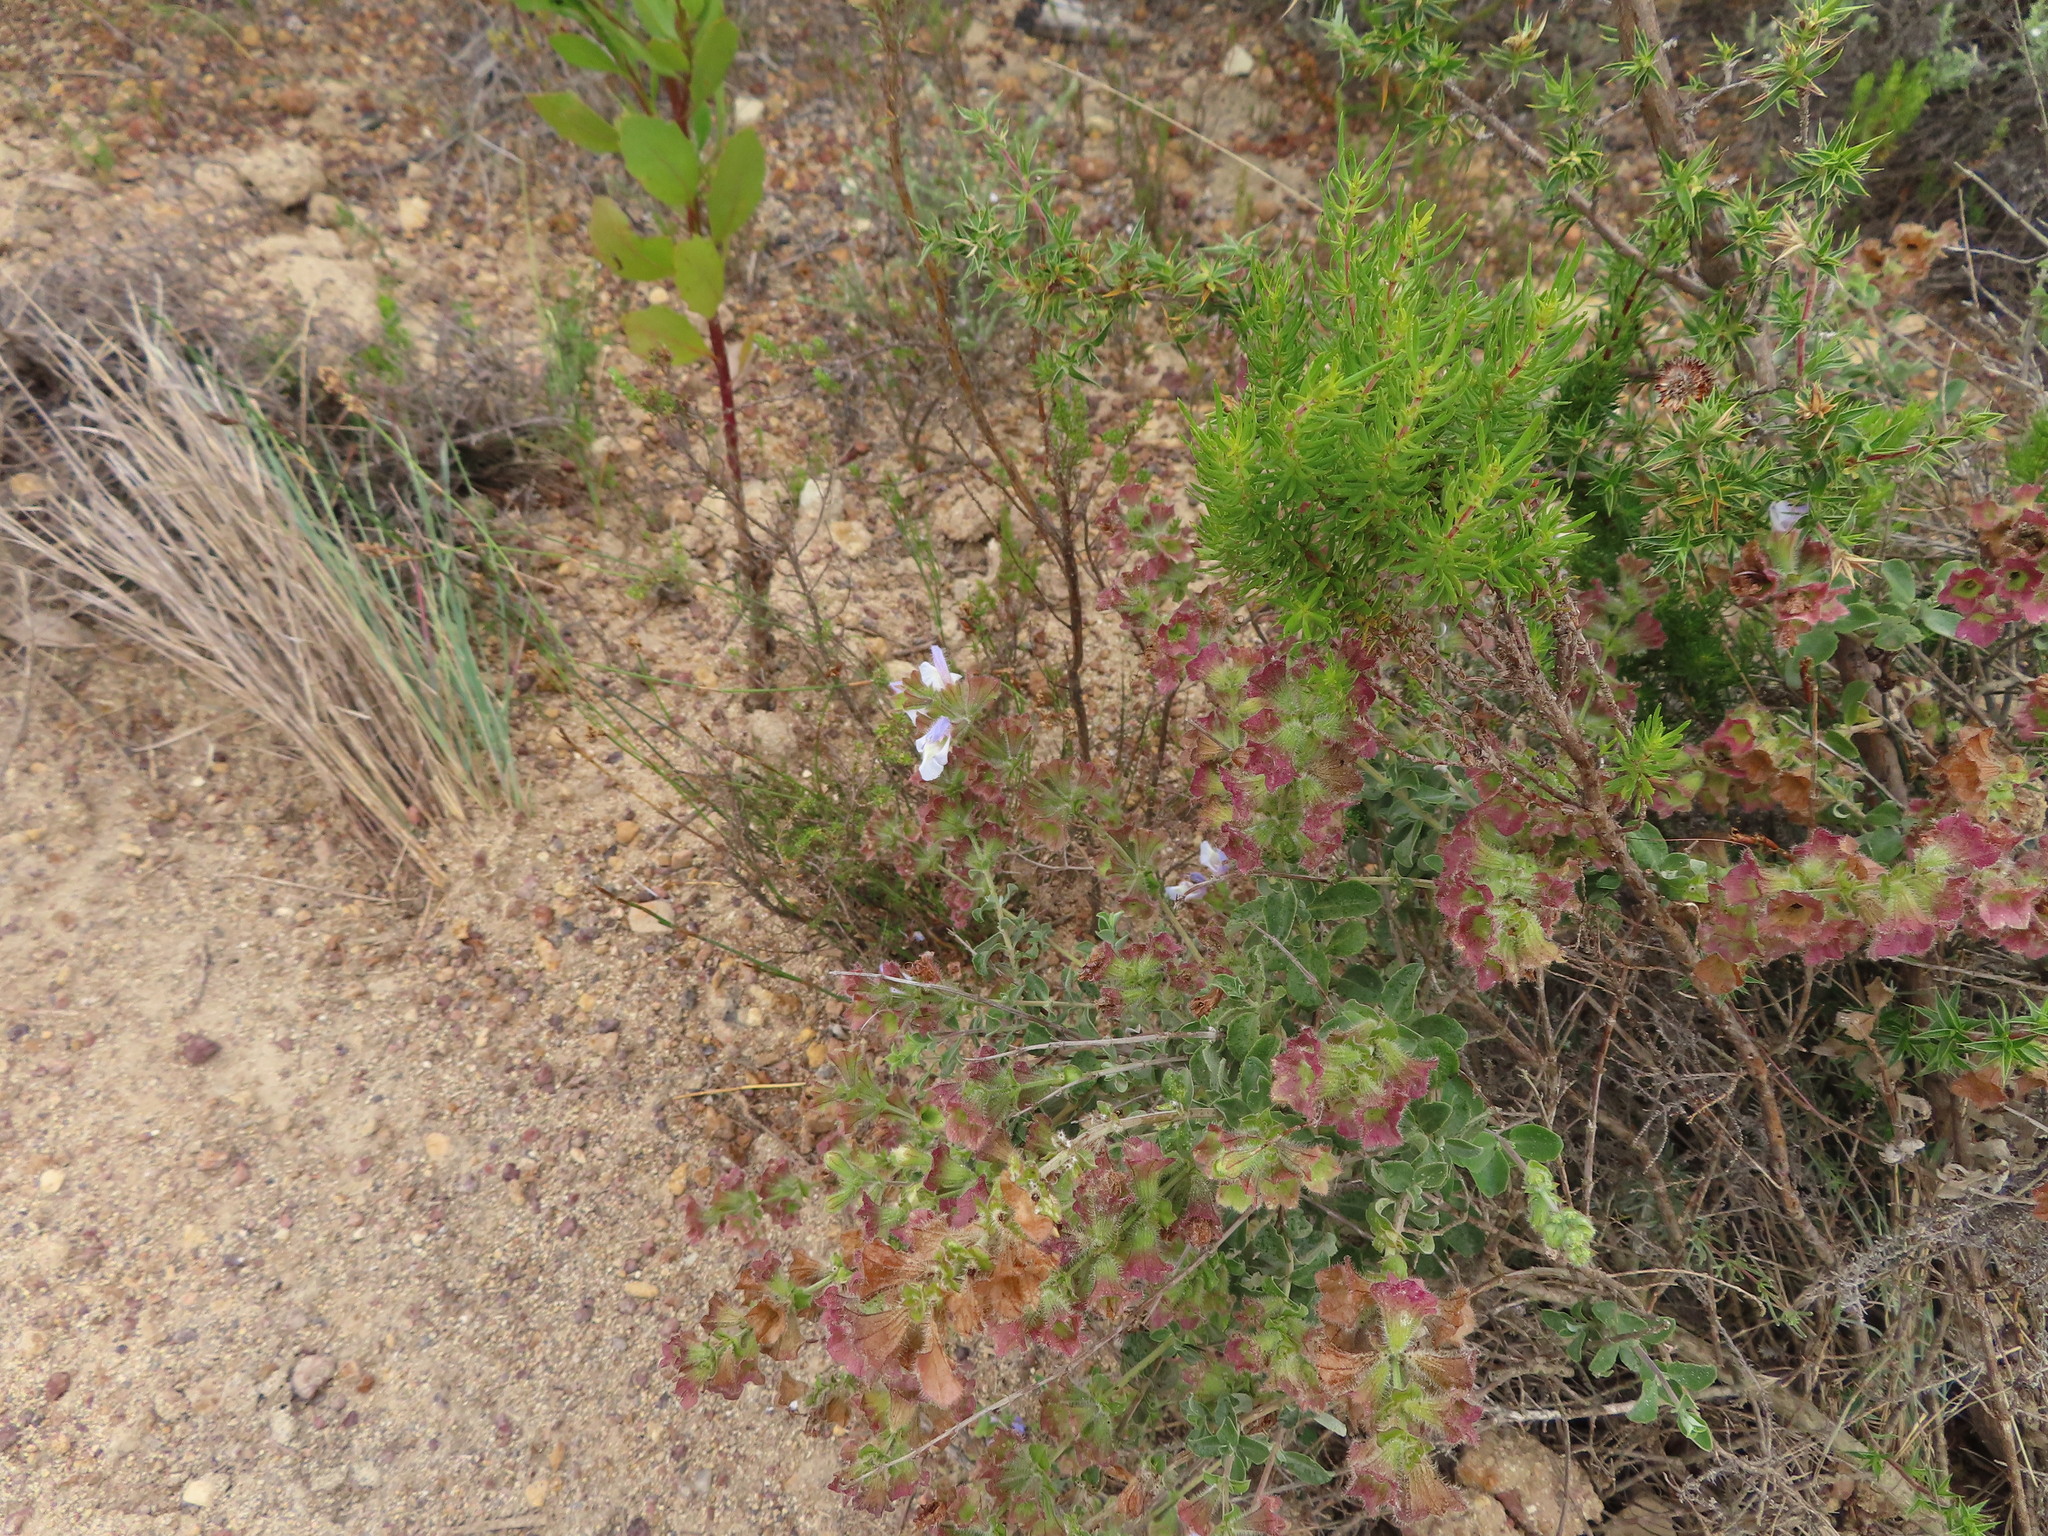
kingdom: Plantae
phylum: Tracheophyta
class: Magnoliopsida
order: Lamiales
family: Lamiaceae
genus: Salvia
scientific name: Salvia africana
